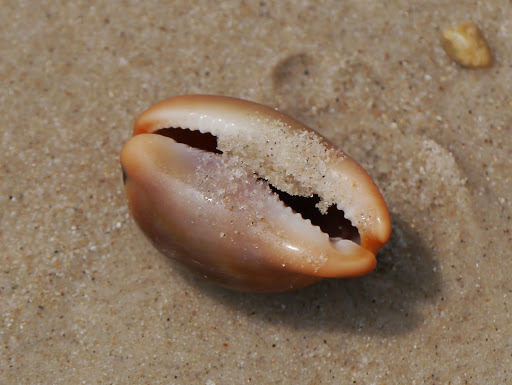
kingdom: Animalia
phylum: Mollusca
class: Gastropoda
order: Littorinimorpha
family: Cypraeidae
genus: Luria
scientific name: Luria lurida
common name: Brown cowry
